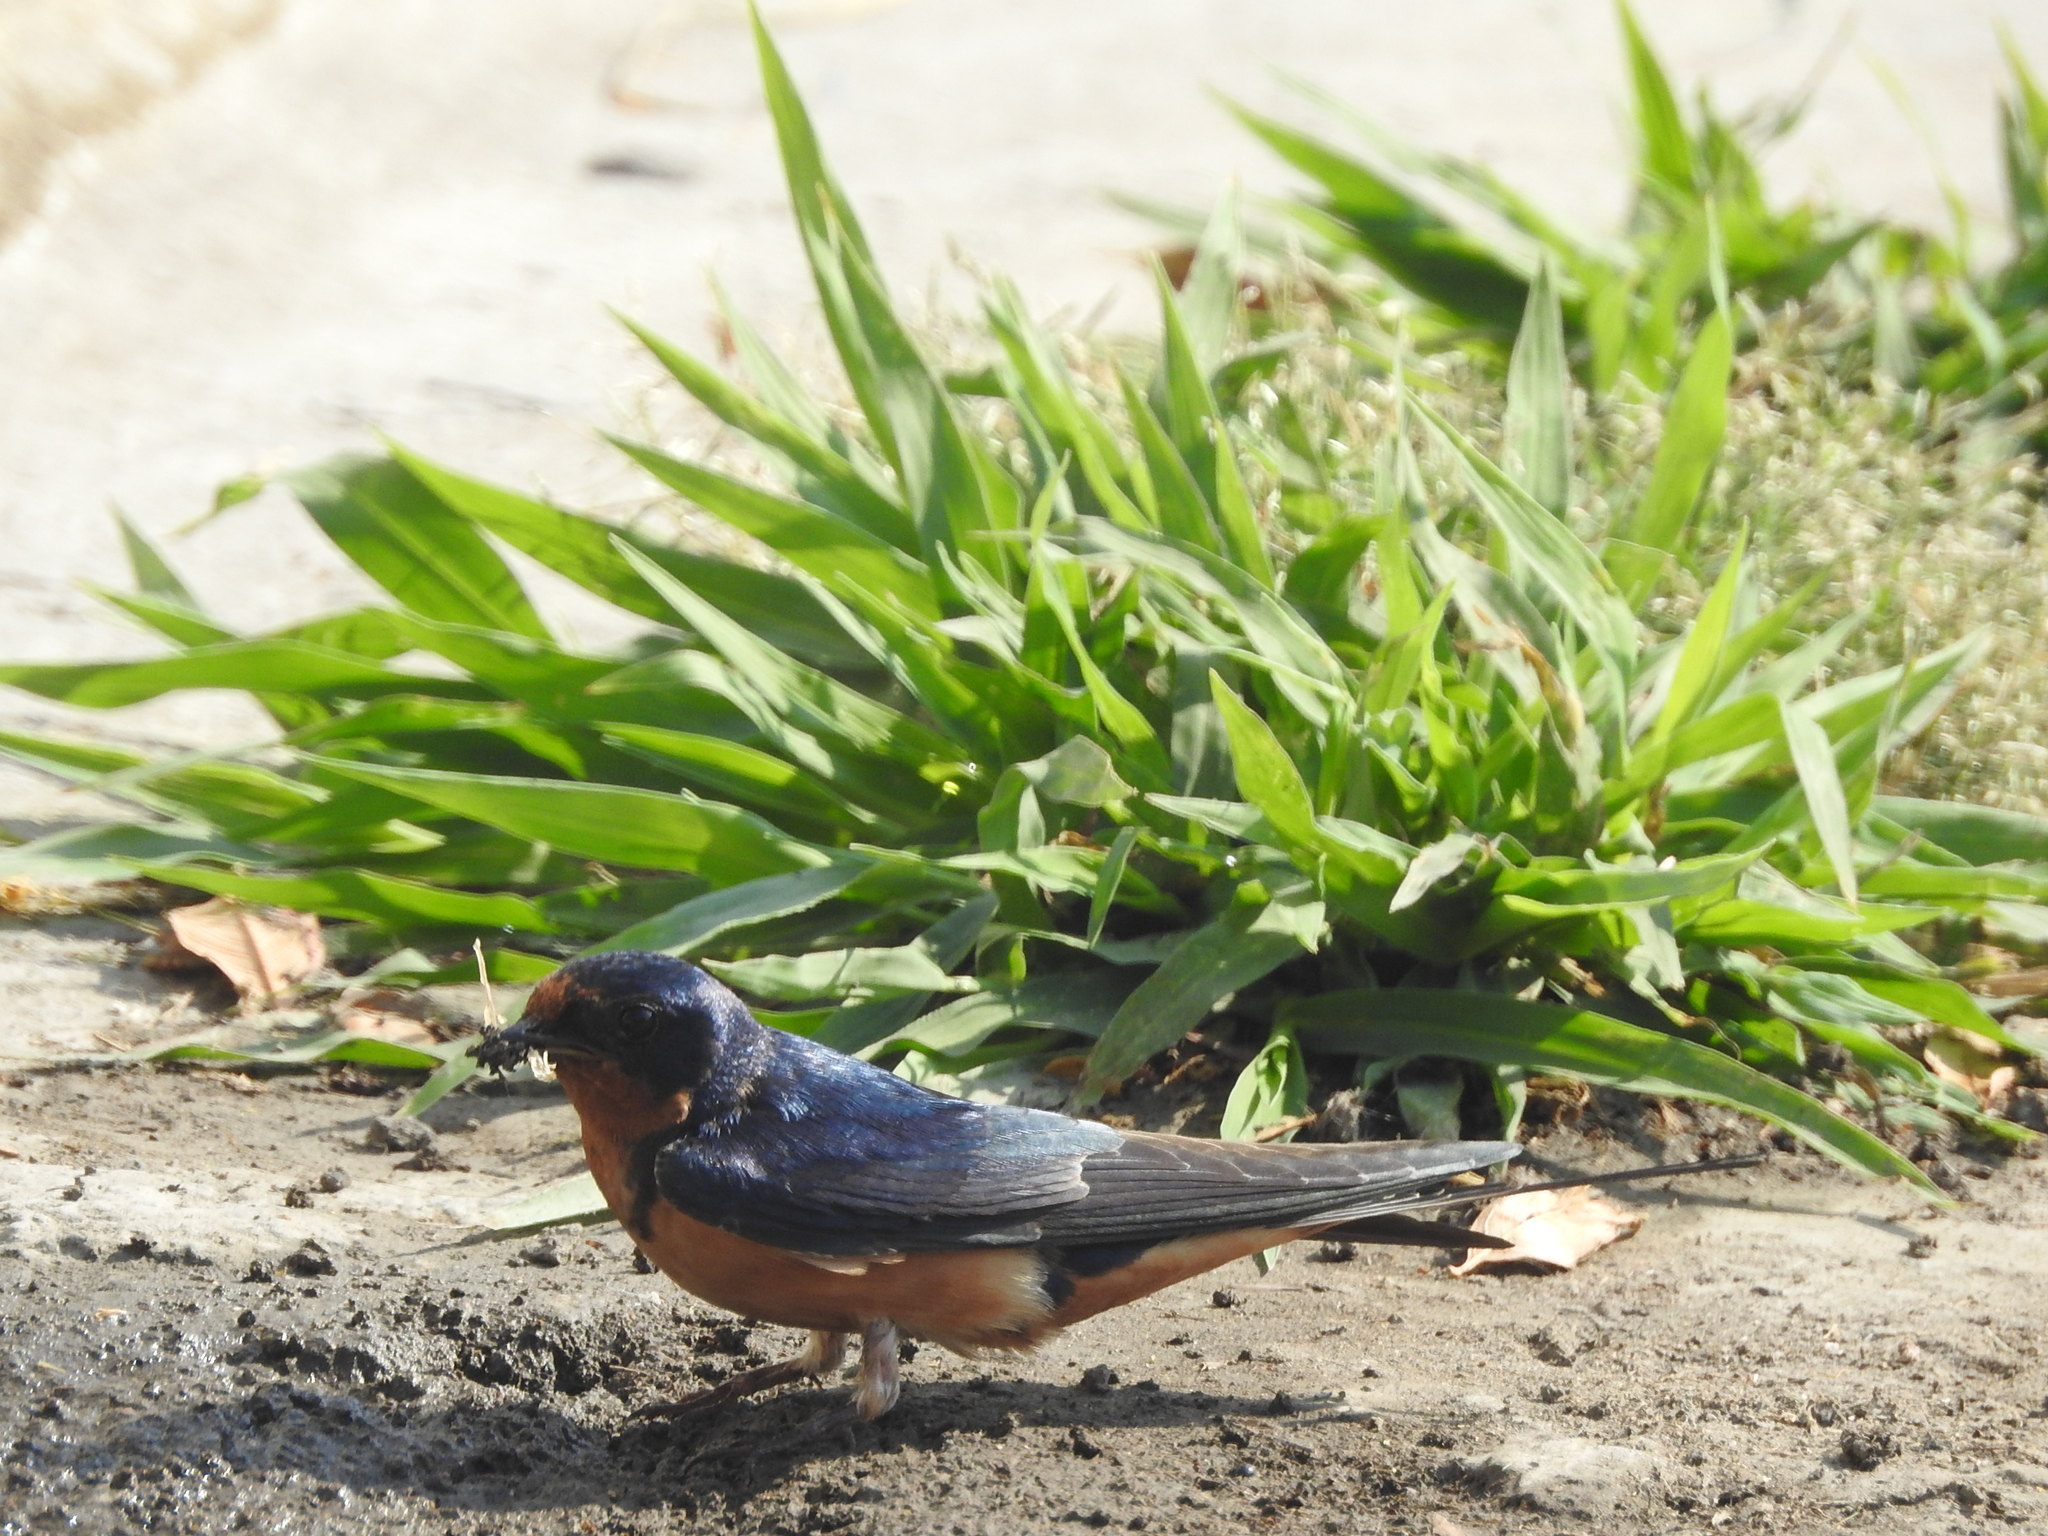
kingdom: Animalia
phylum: Chordata
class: Aves
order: Passeriformes
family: Hirundinidae
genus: Hirundo
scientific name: Hirundo rustica
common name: Barn swallow
